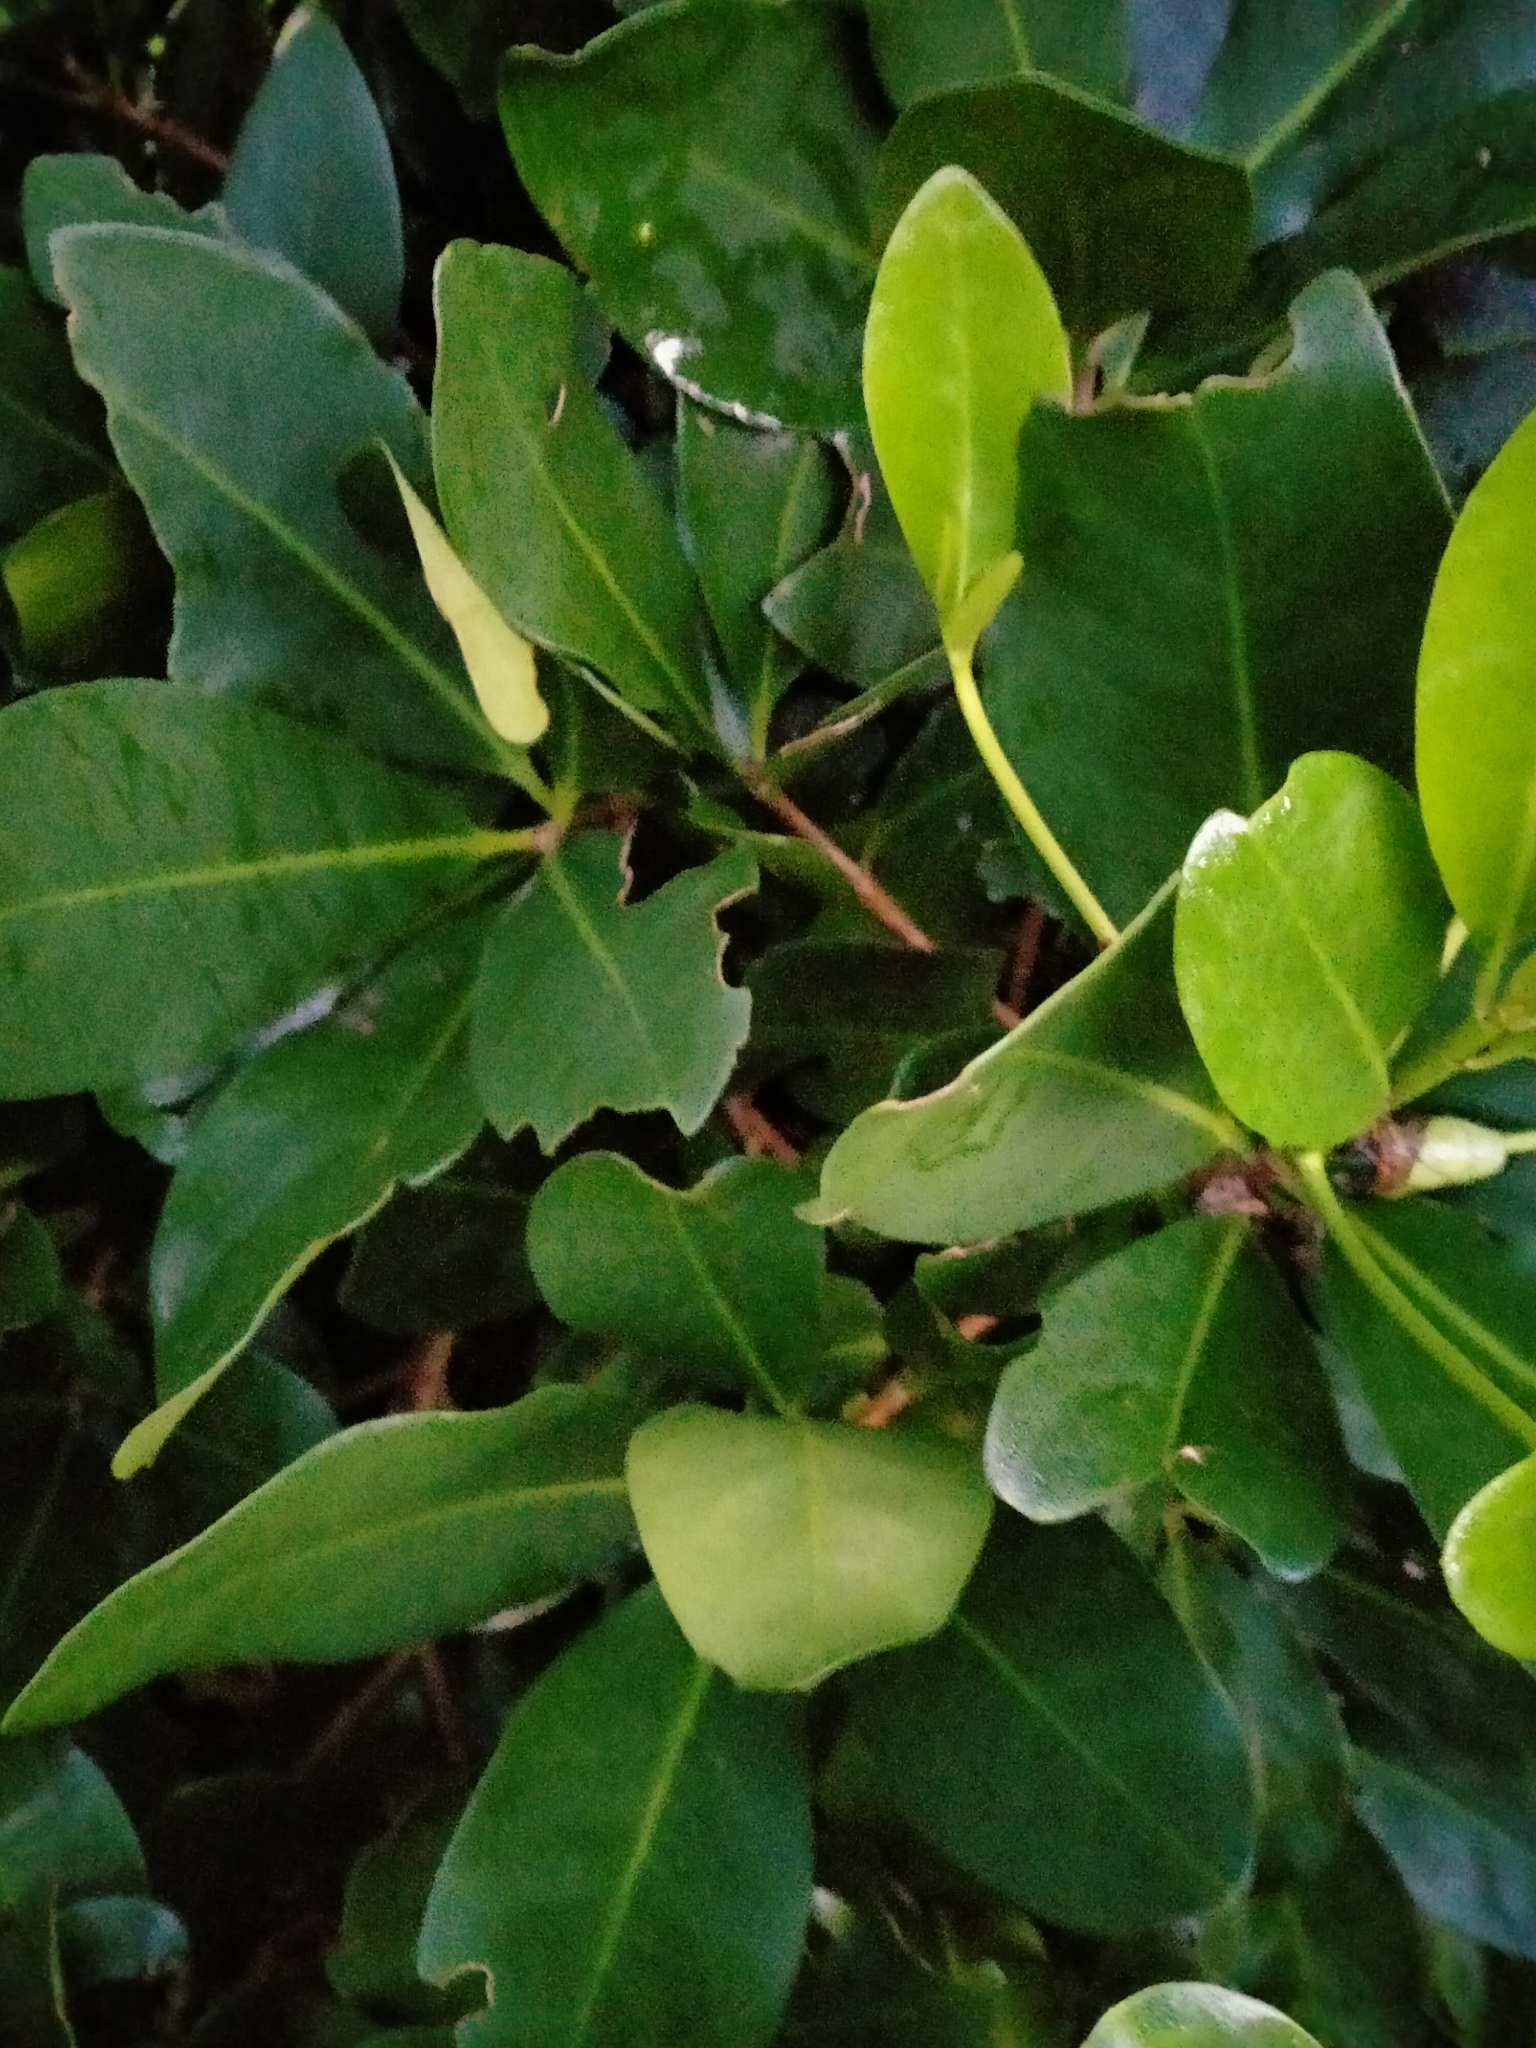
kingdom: Plantae
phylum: Tracheophyta
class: Magnoliopsida
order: Cucurbitales
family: Corynocarpaceae
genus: Corynocarpus
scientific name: Corynocarpus laevigatus
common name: New zealand laurel
